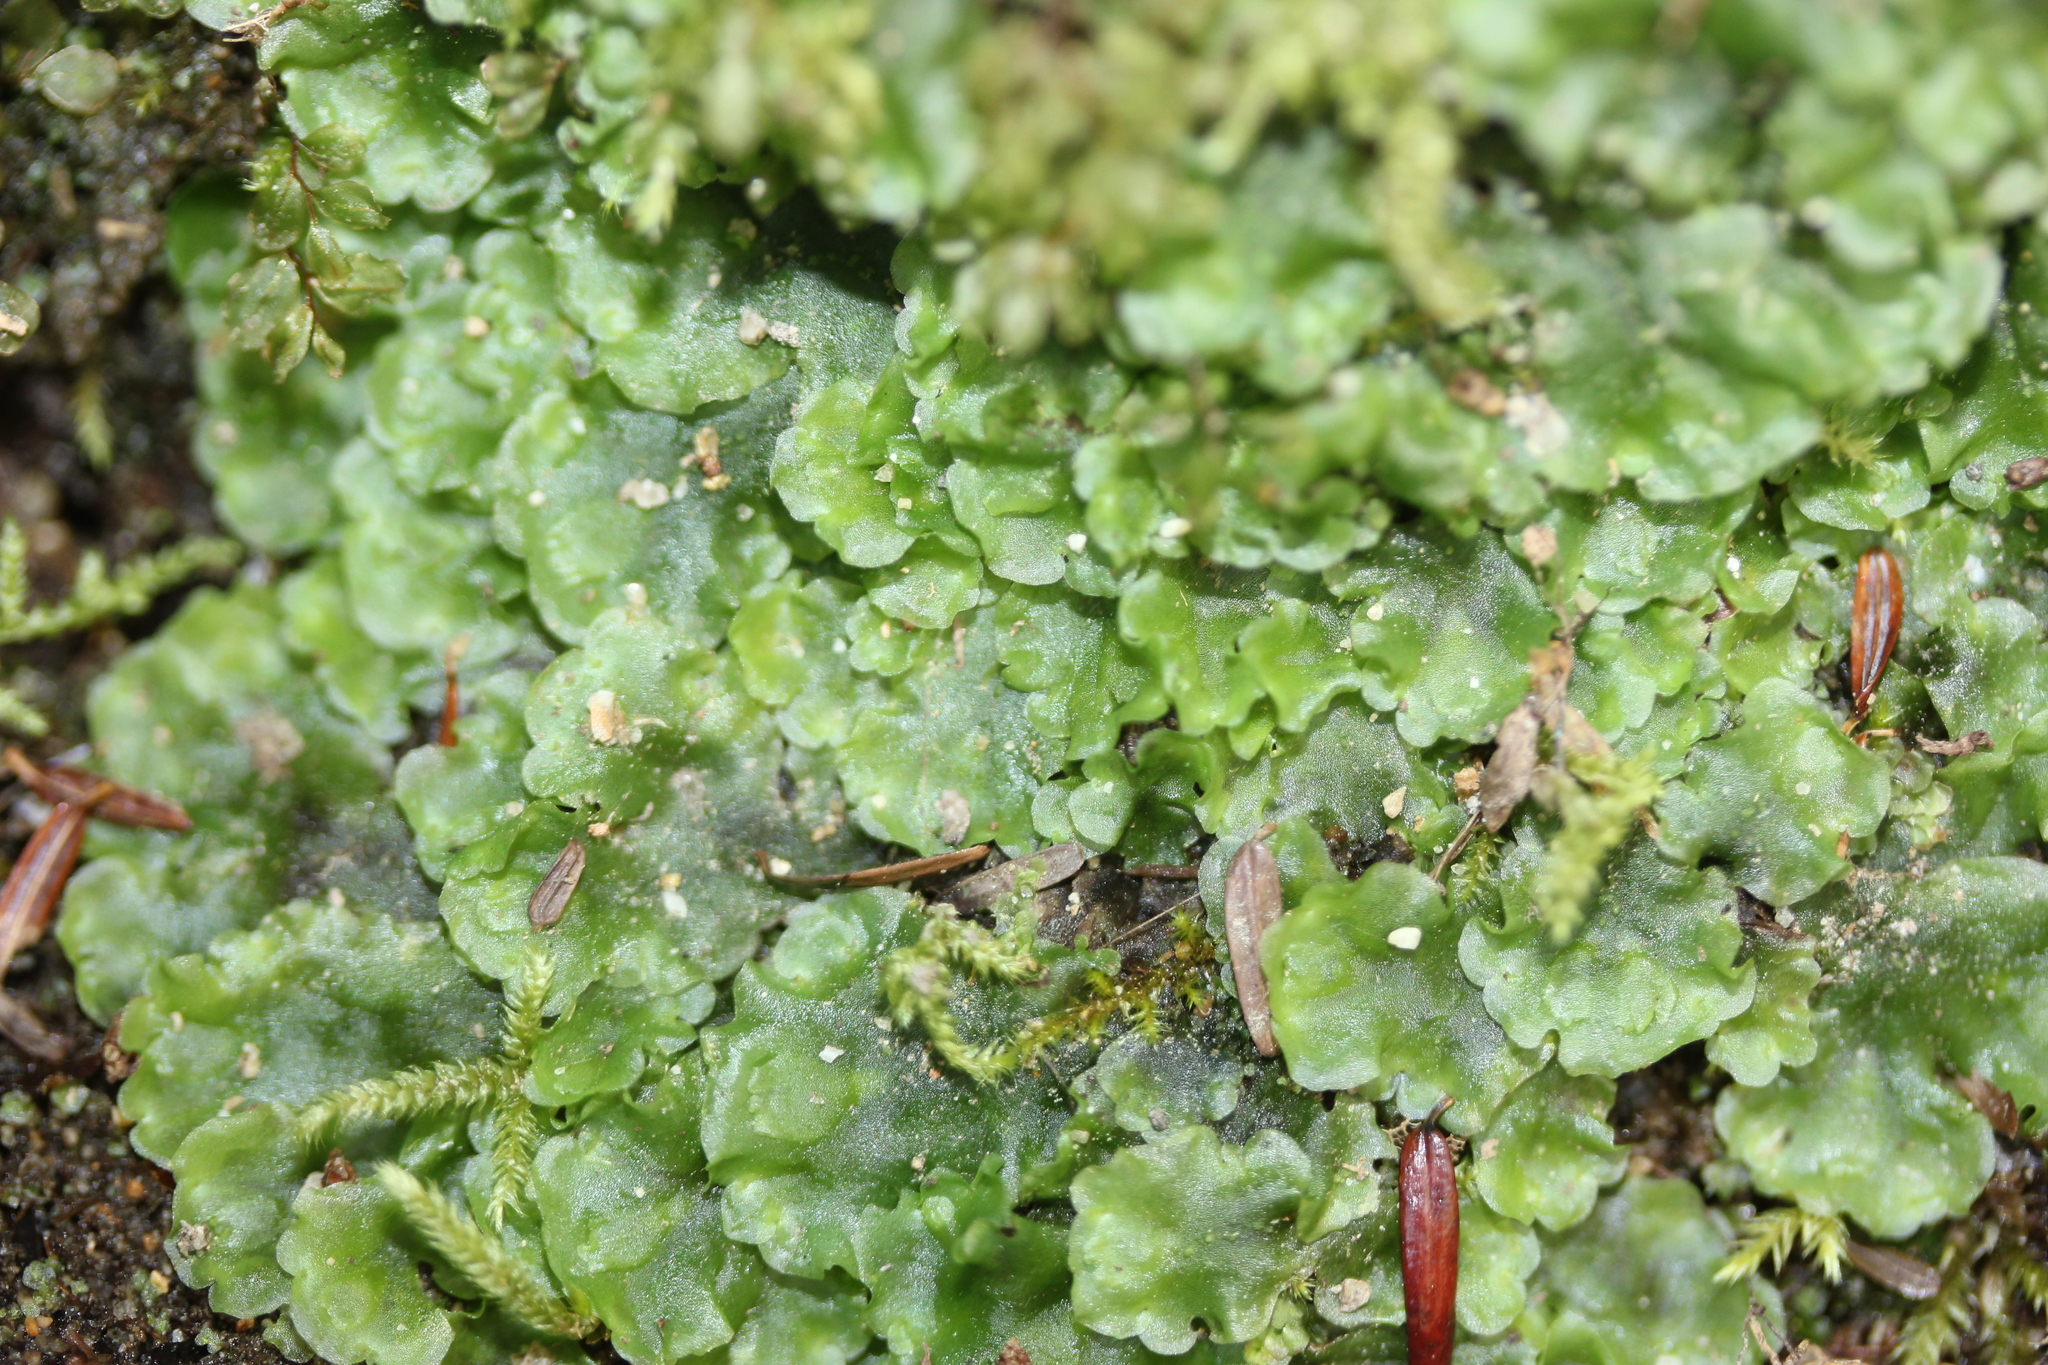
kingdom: Plantae
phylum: Marchantiophyta
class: Jungermanniopsida
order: Pelliales
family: Pelliaceae
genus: Pellia
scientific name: Pellia epiphylla
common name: Common pellia
